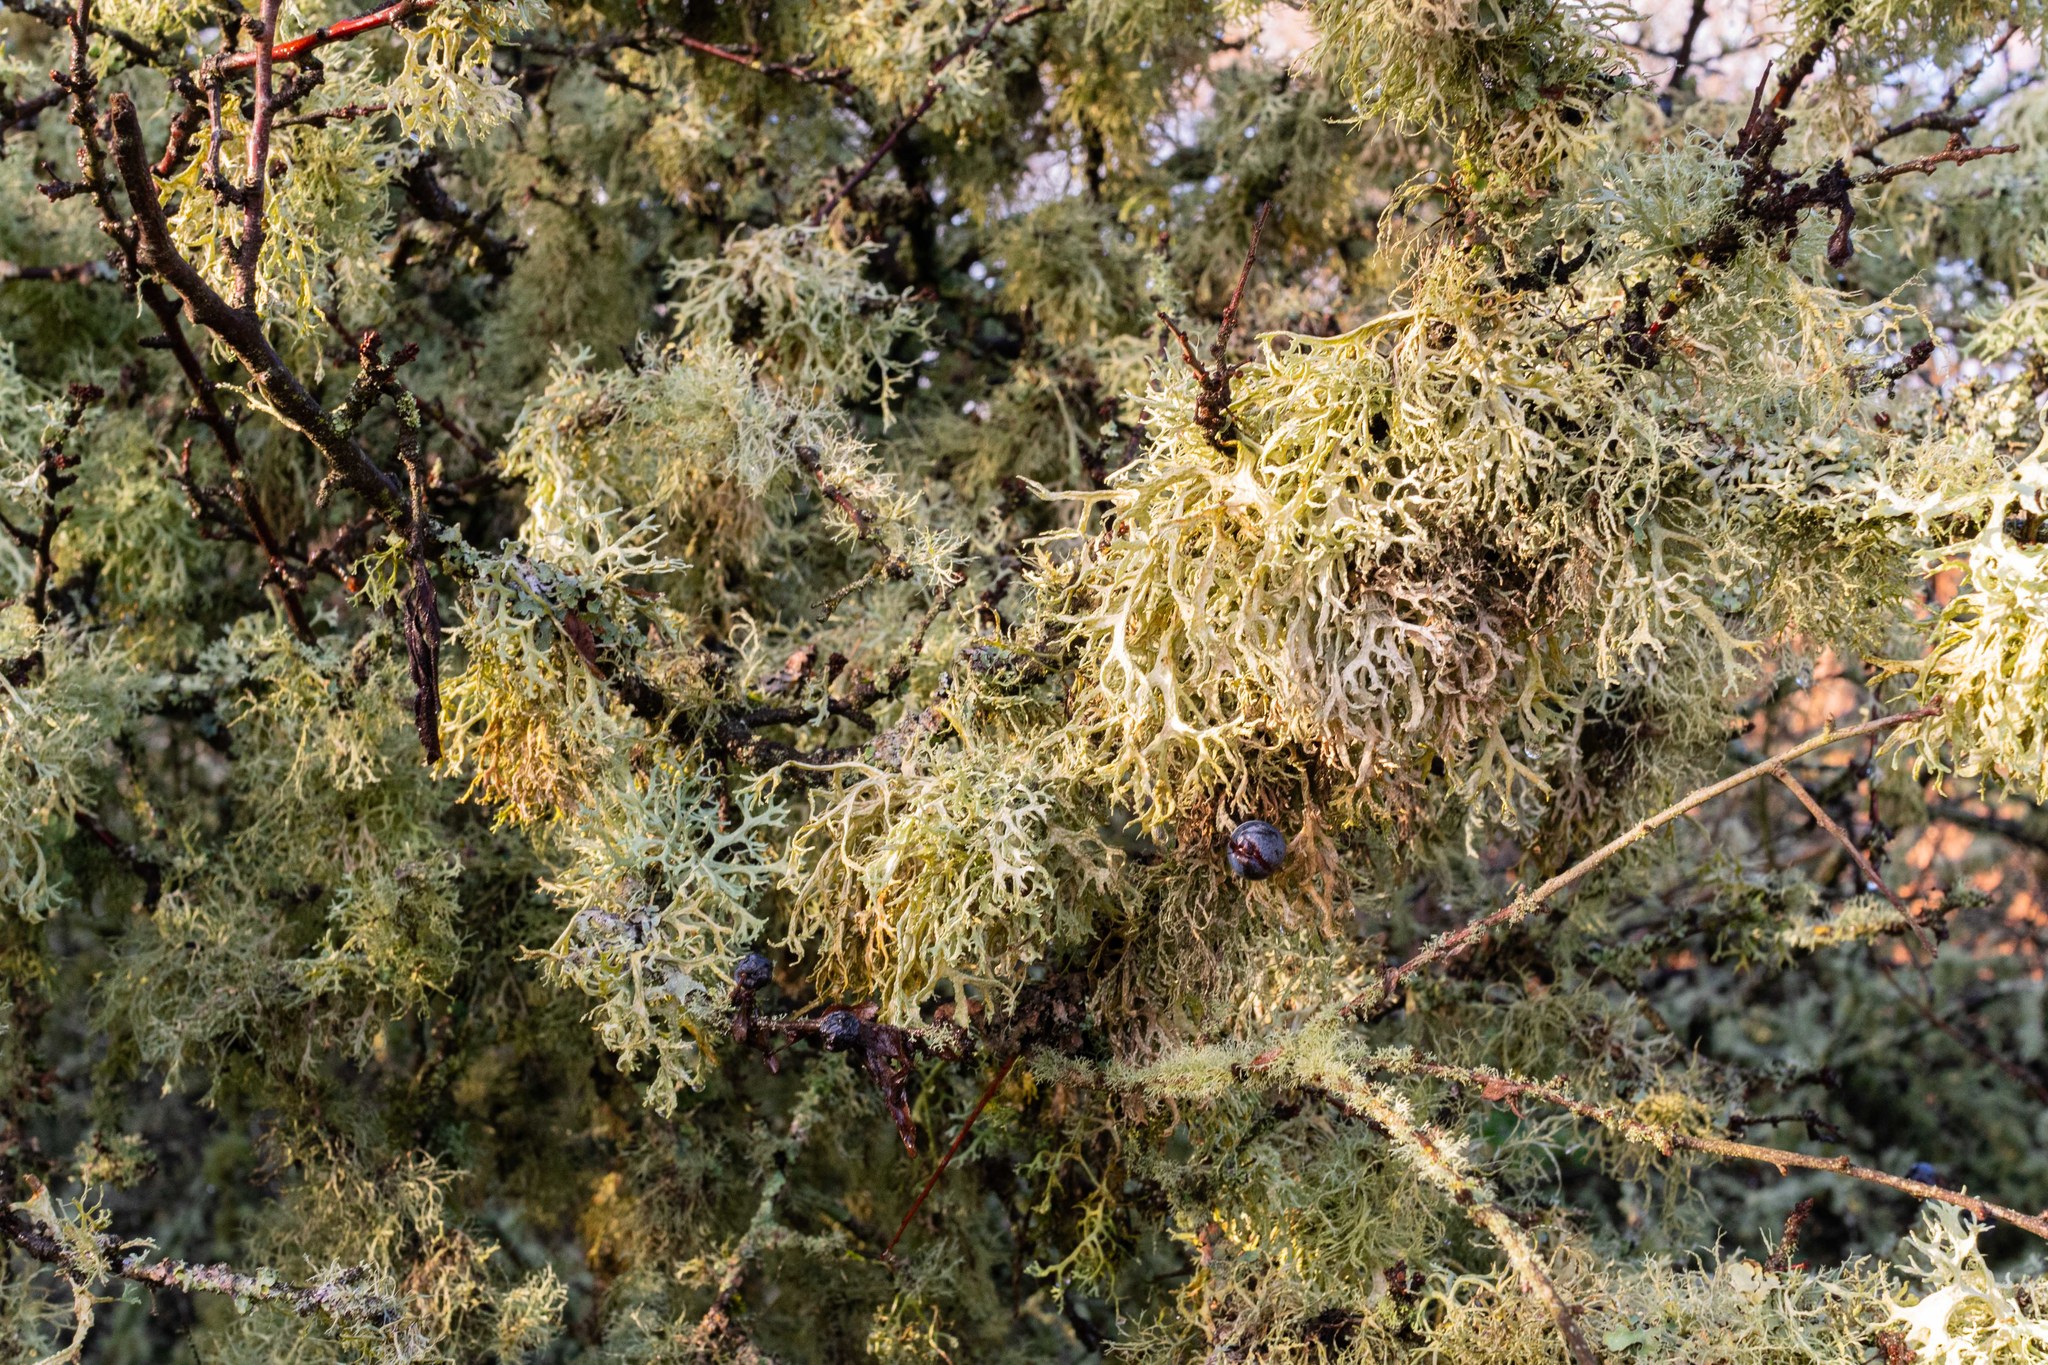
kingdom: Fungi
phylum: Ascomycota
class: Lecanoromycetes
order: Lecanorales
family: Parmeliaceae
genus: Evernia
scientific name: Evernia prunastri
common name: Oak moss
